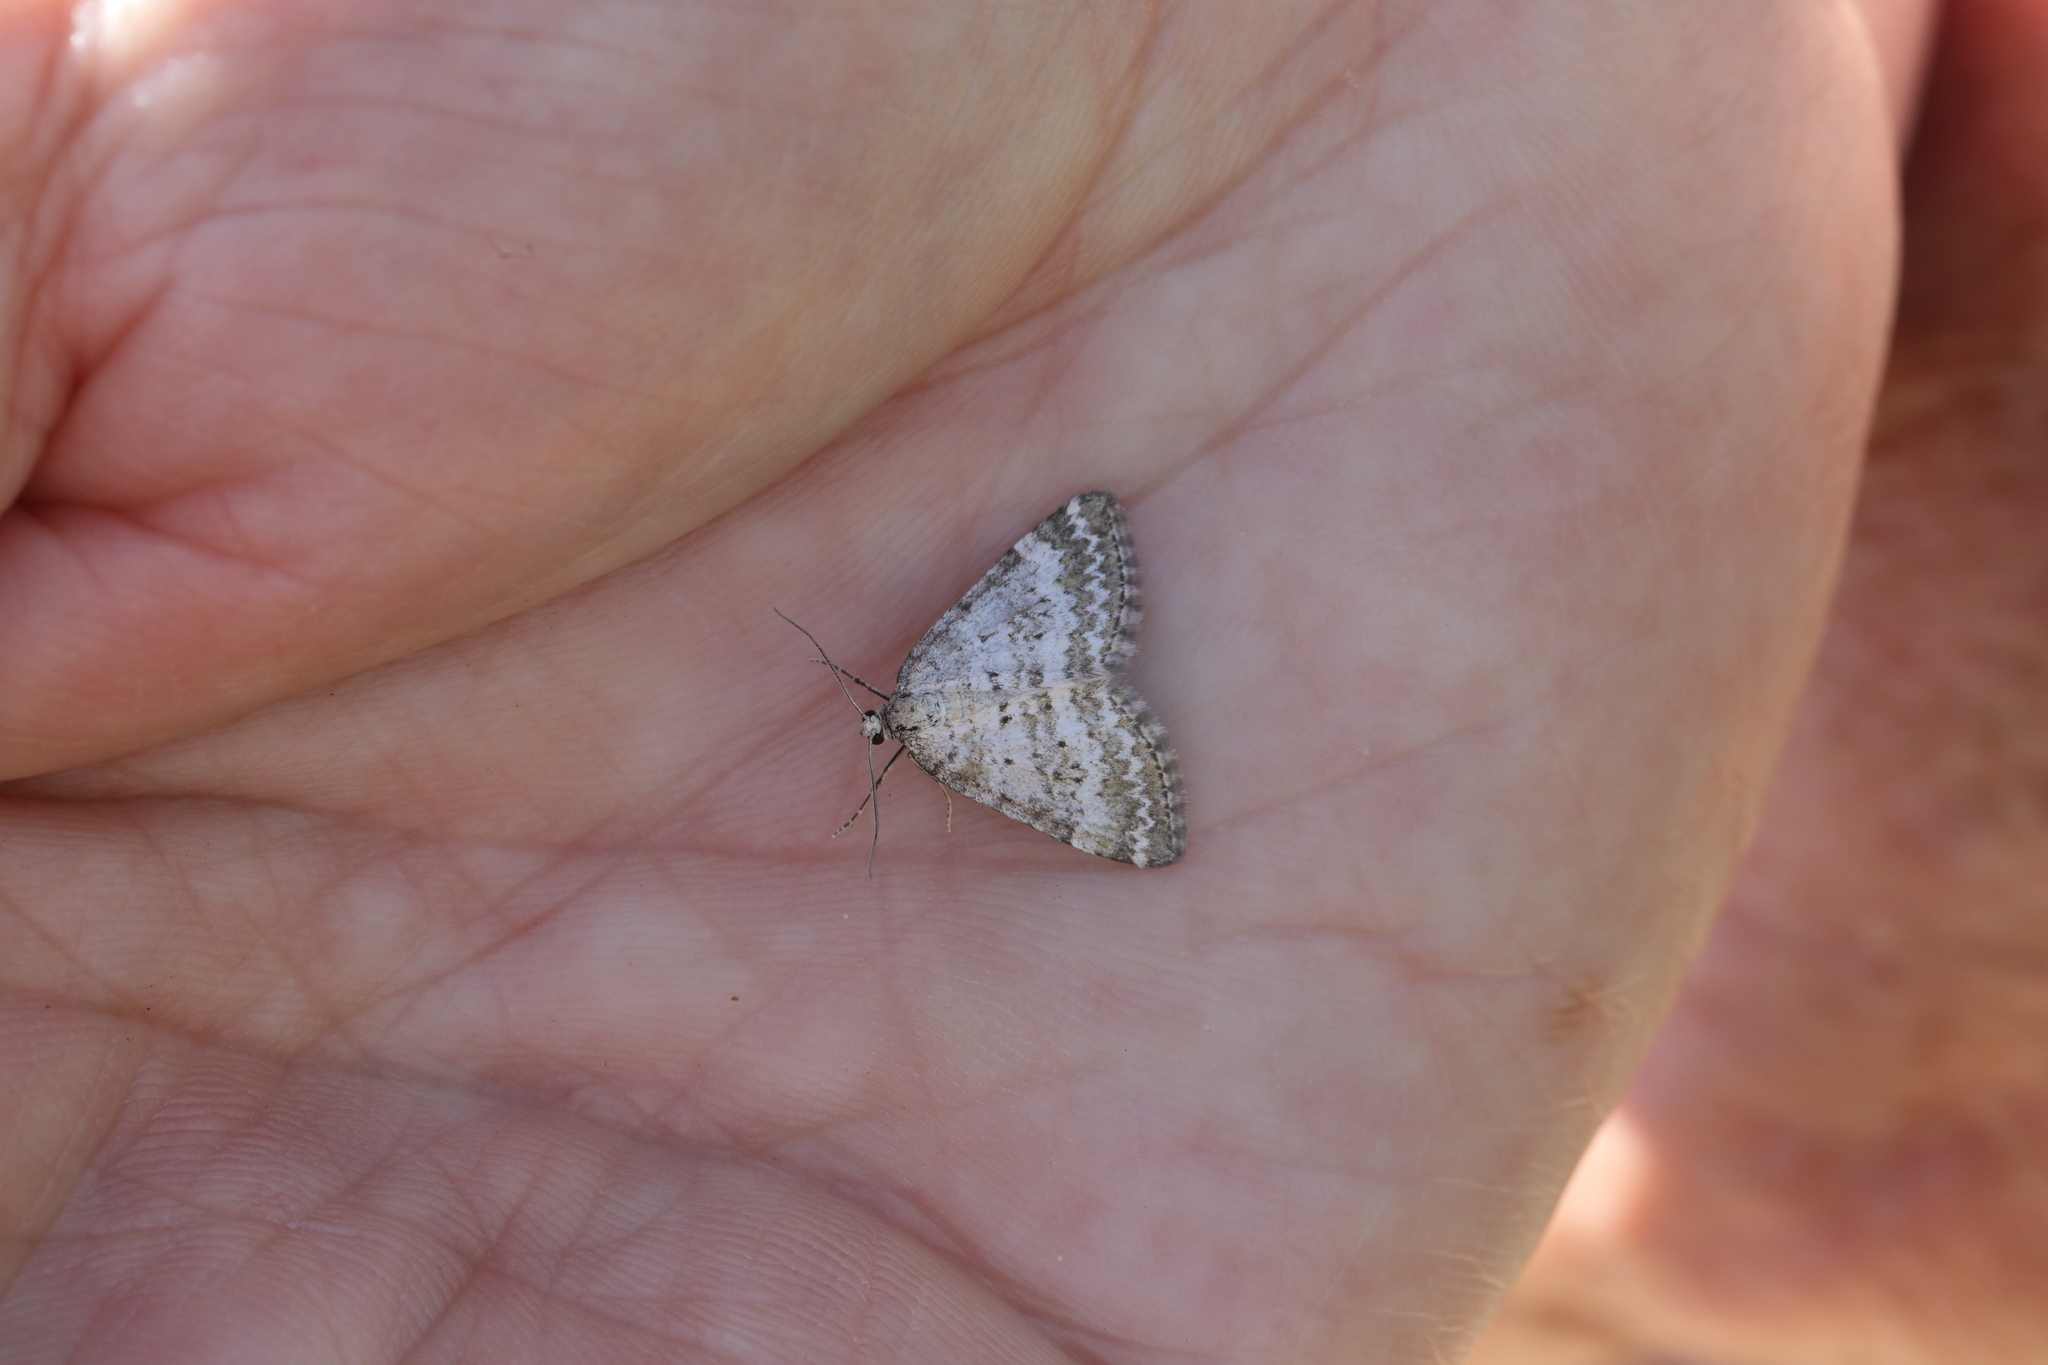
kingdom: Animalia
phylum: Arthropoda
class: Insecta
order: Lepidoptera
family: Geometridae
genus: Perizoma
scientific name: Perizoma albulata
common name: Grass rivulet
